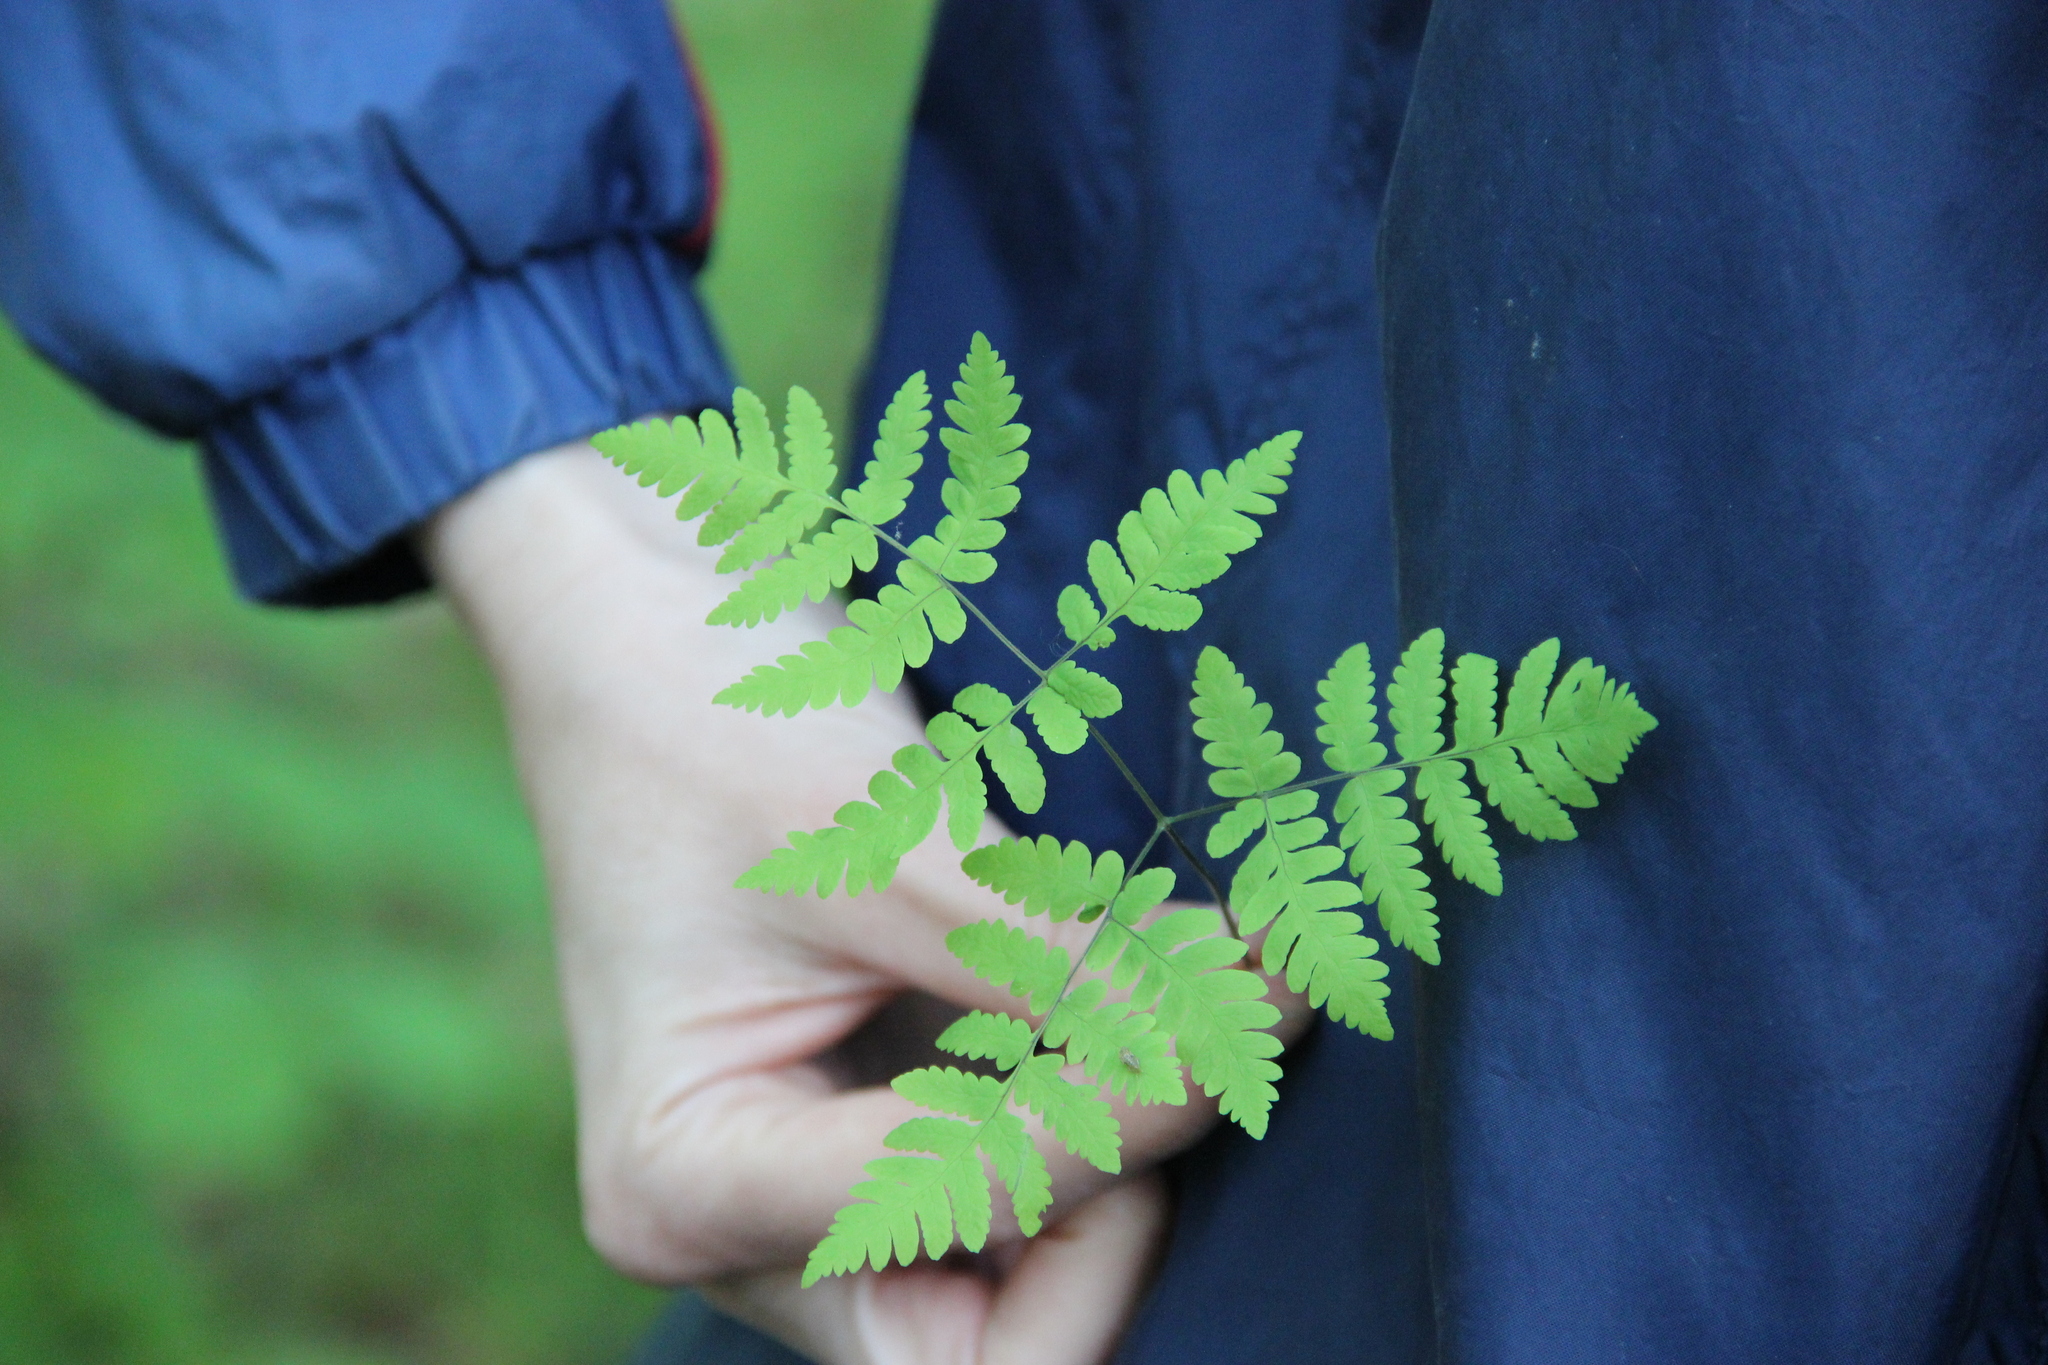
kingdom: Plantae
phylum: Tracheophyta
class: Polypodiopsida
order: Polypodiales
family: Cystopteridaceae
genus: Gymnocarpium
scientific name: Gymnocarpium dryopteris
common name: Oak fern
